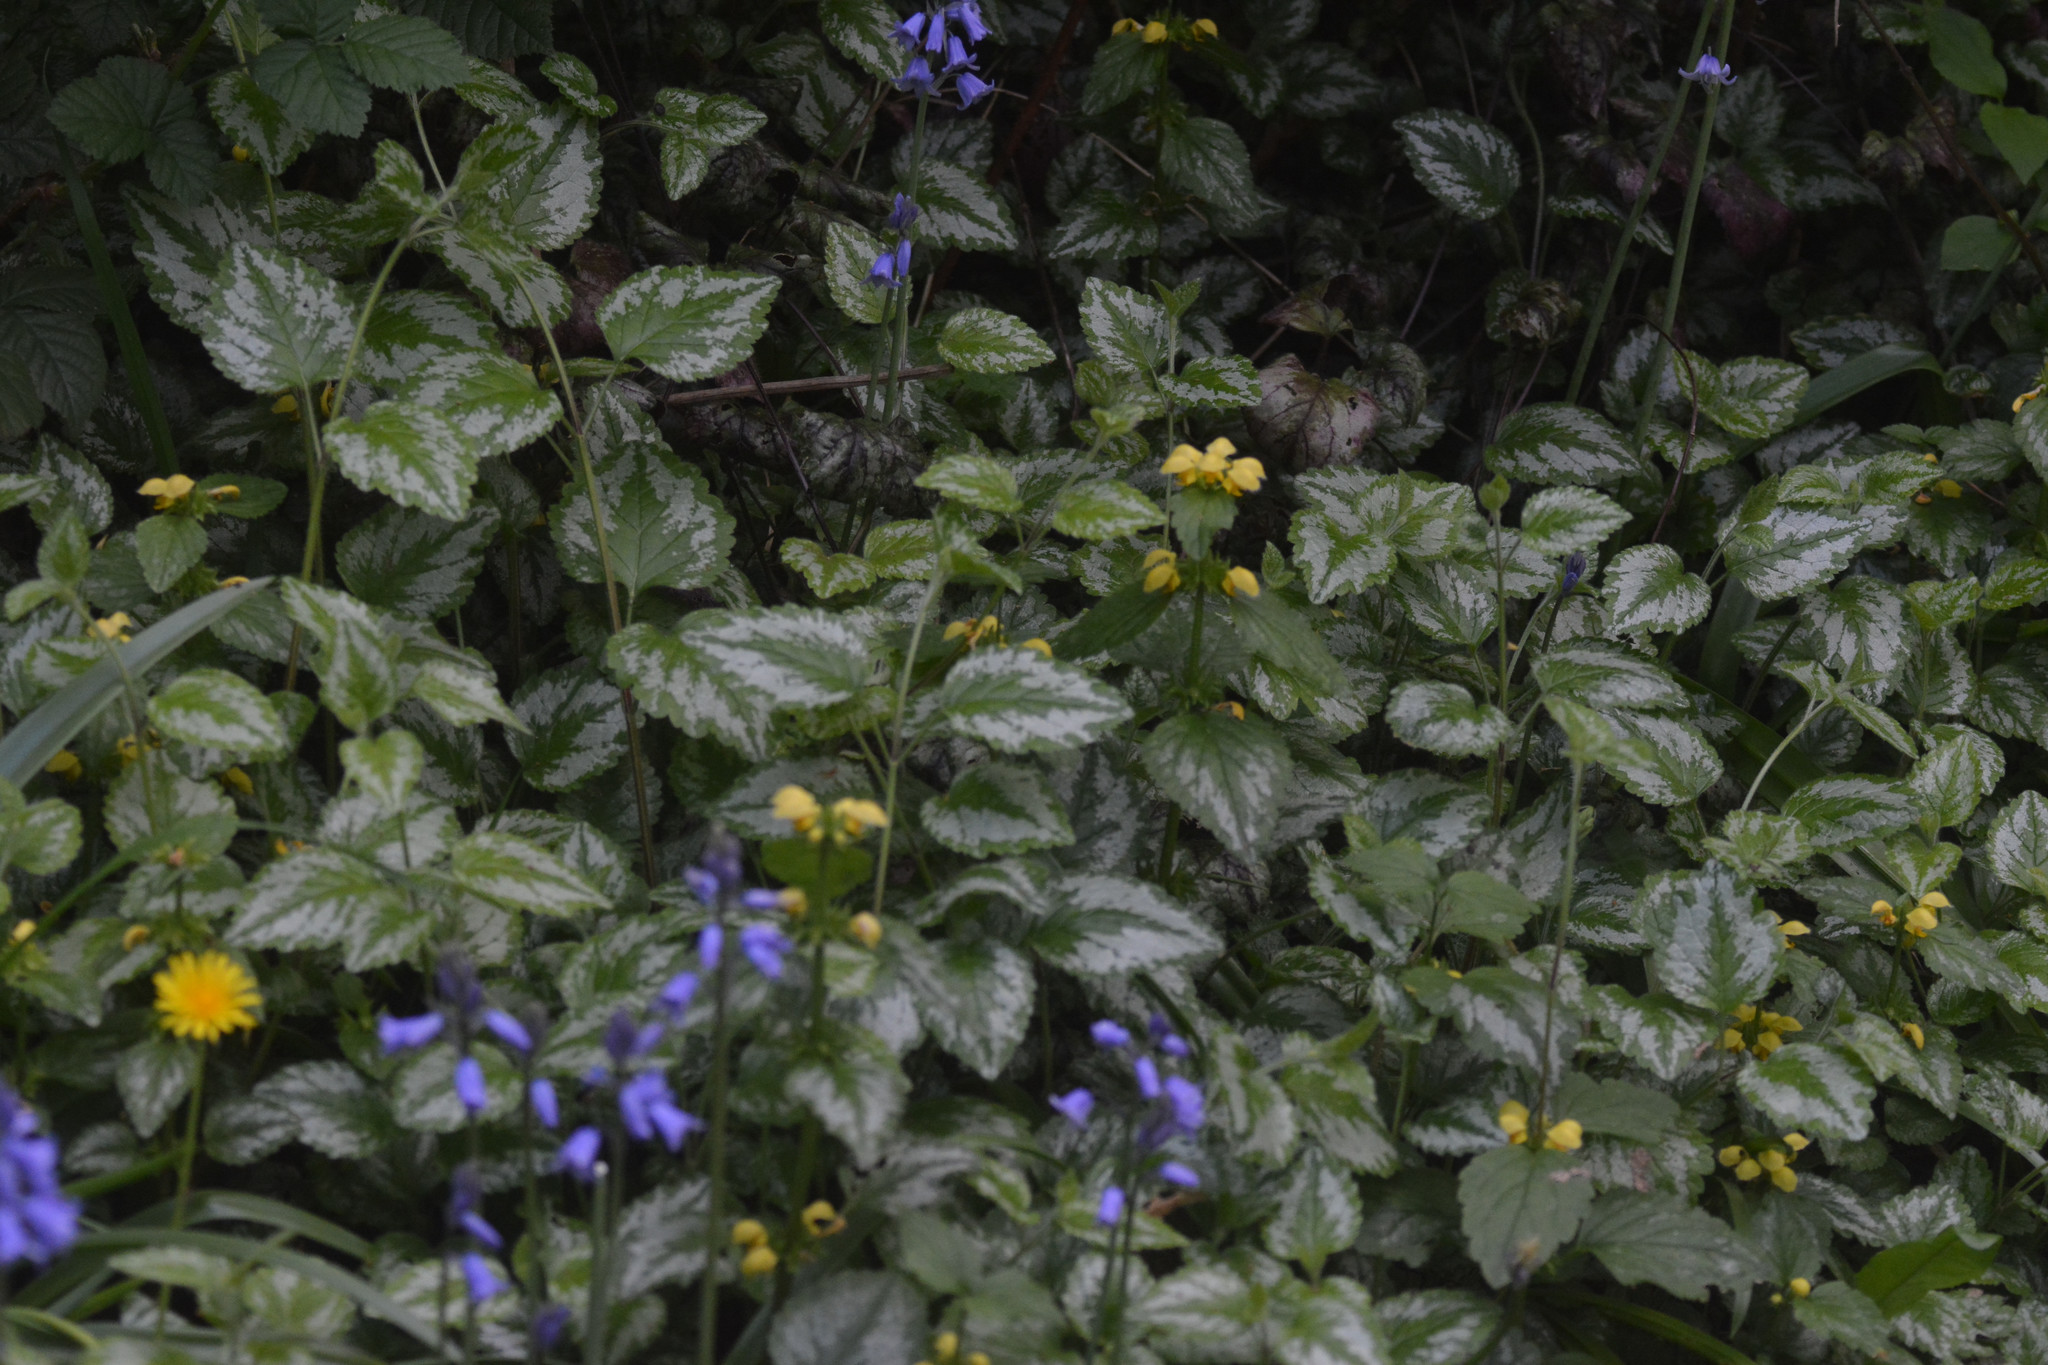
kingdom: Plantae
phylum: Tracheophyta
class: Magnoliopsida
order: Lamiales
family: Lamiaceae
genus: Lamium
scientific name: Lamium galeobdolon
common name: Yellow archangel
